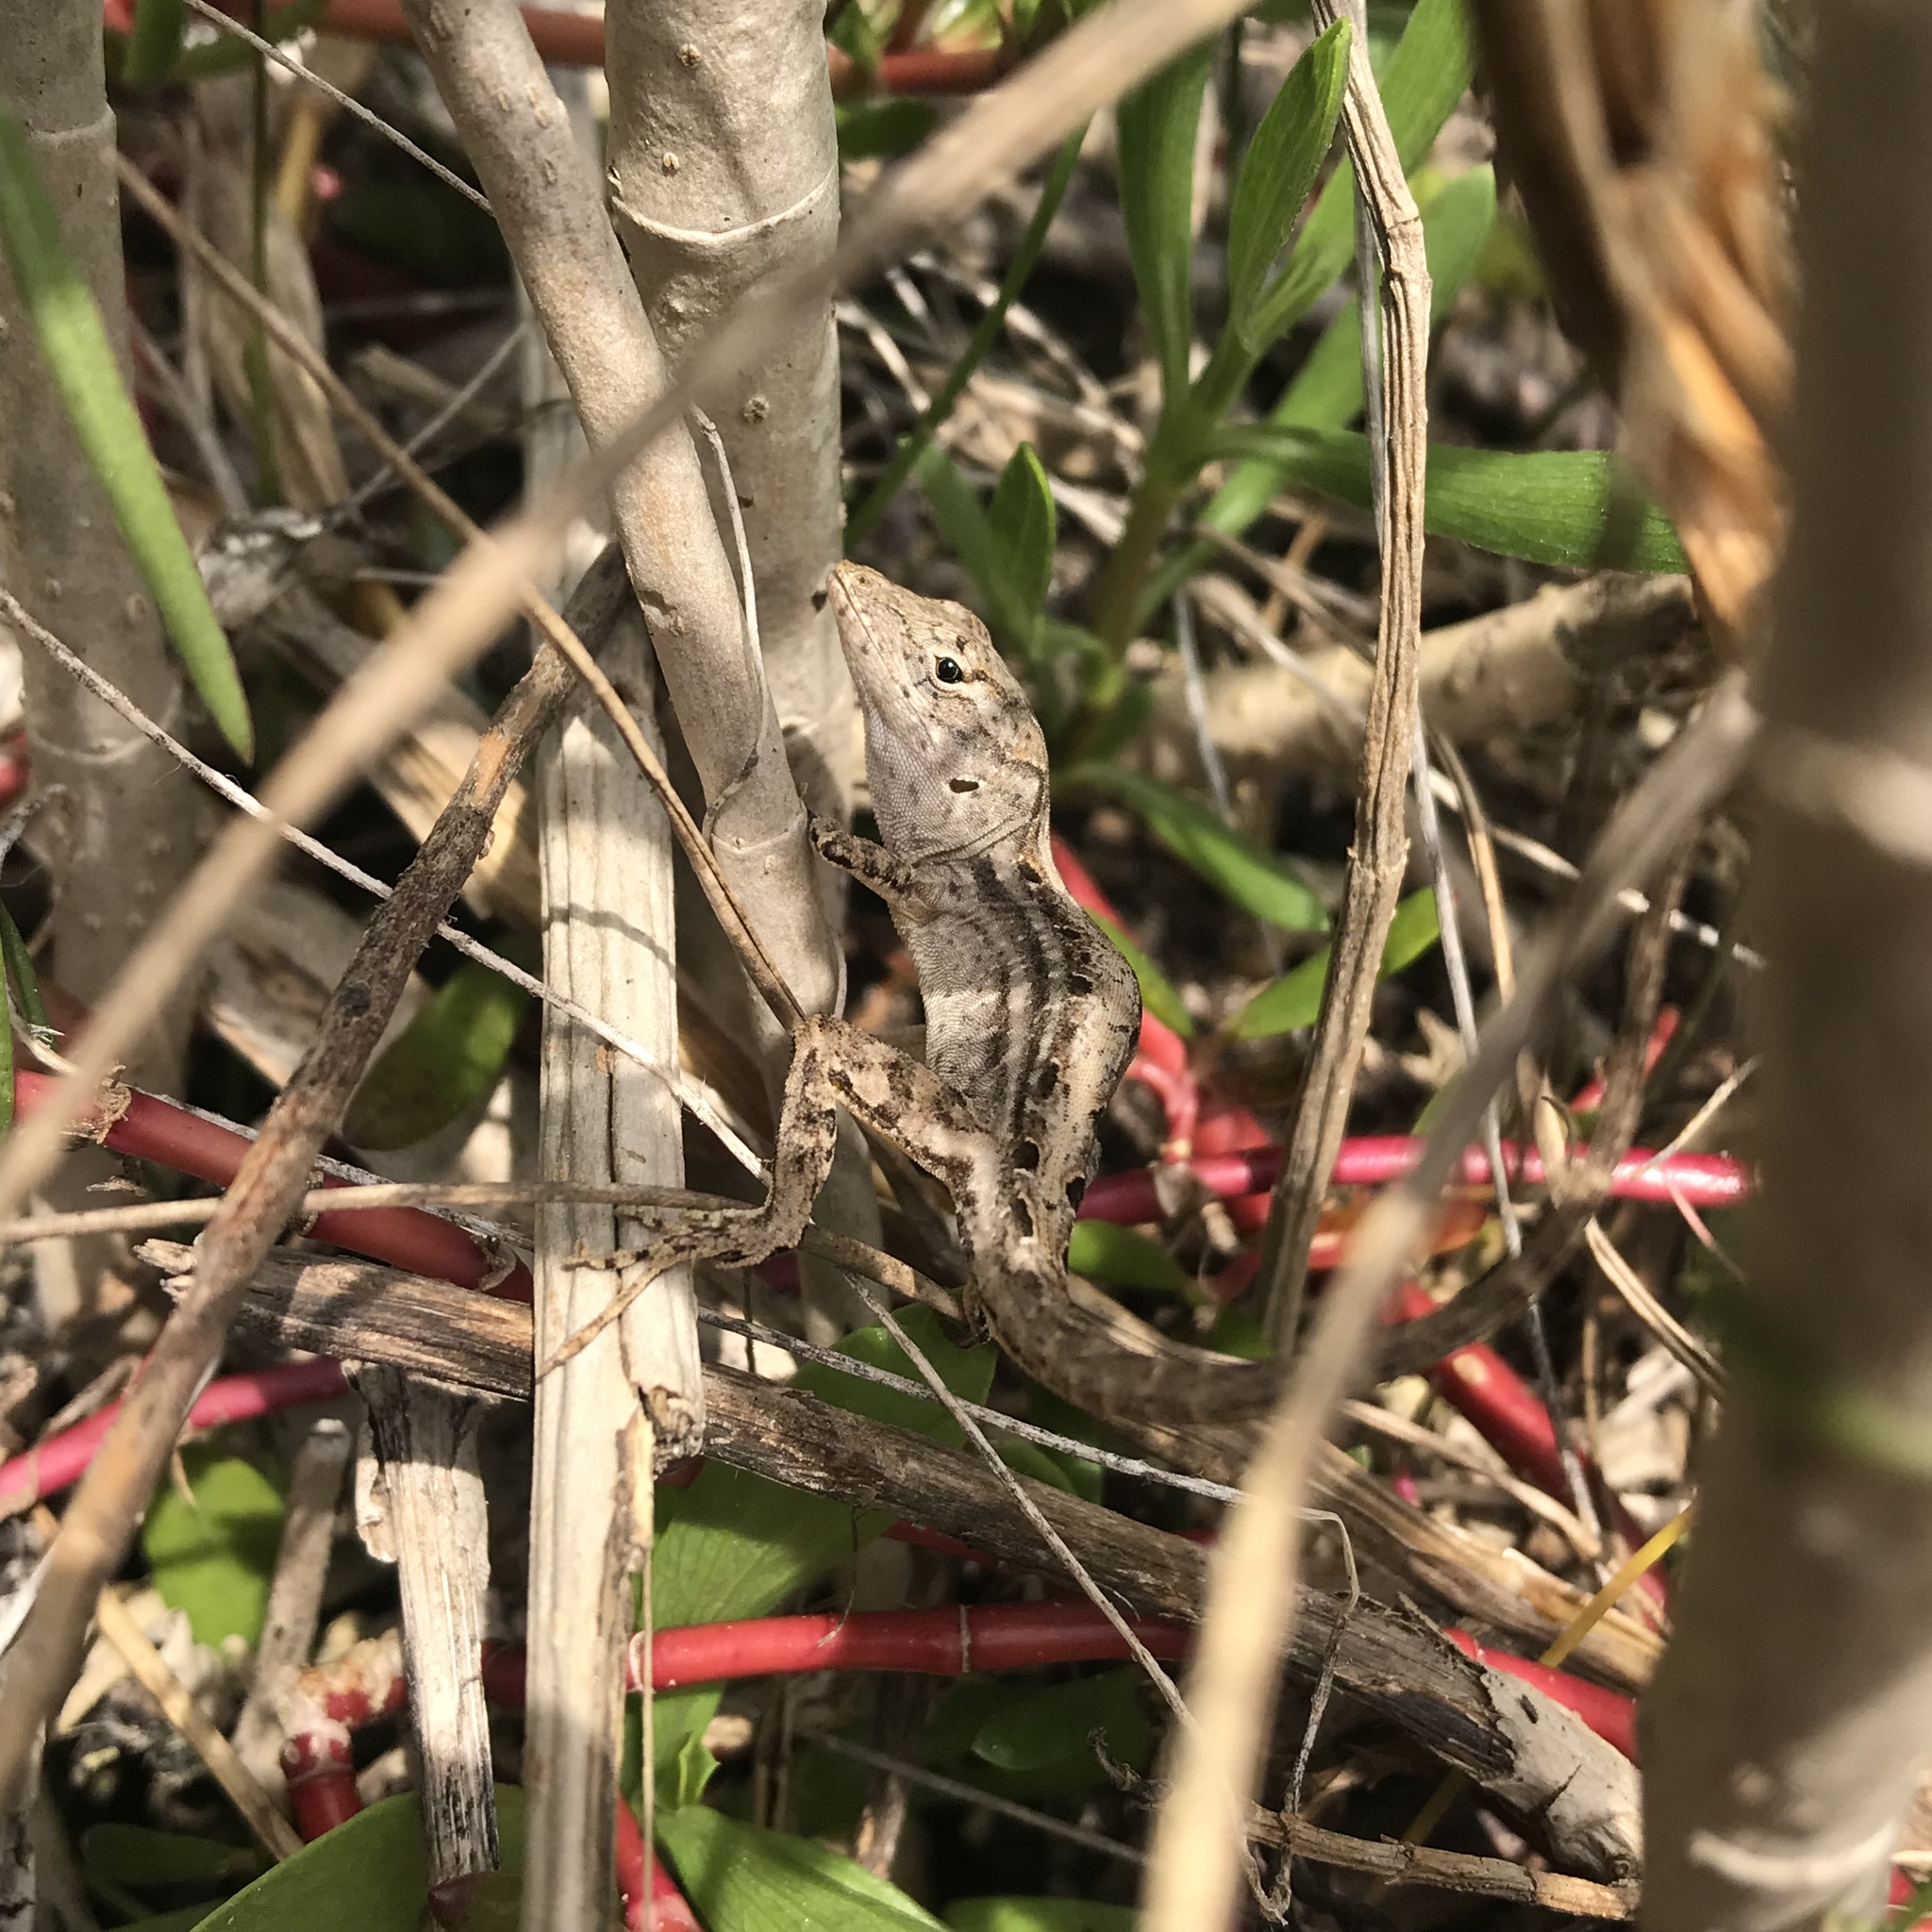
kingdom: Animalia
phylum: Chordata
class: Squamata
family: Dactyloidae
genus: Anolis
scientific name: Anolis sagrei
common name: Brown anole
